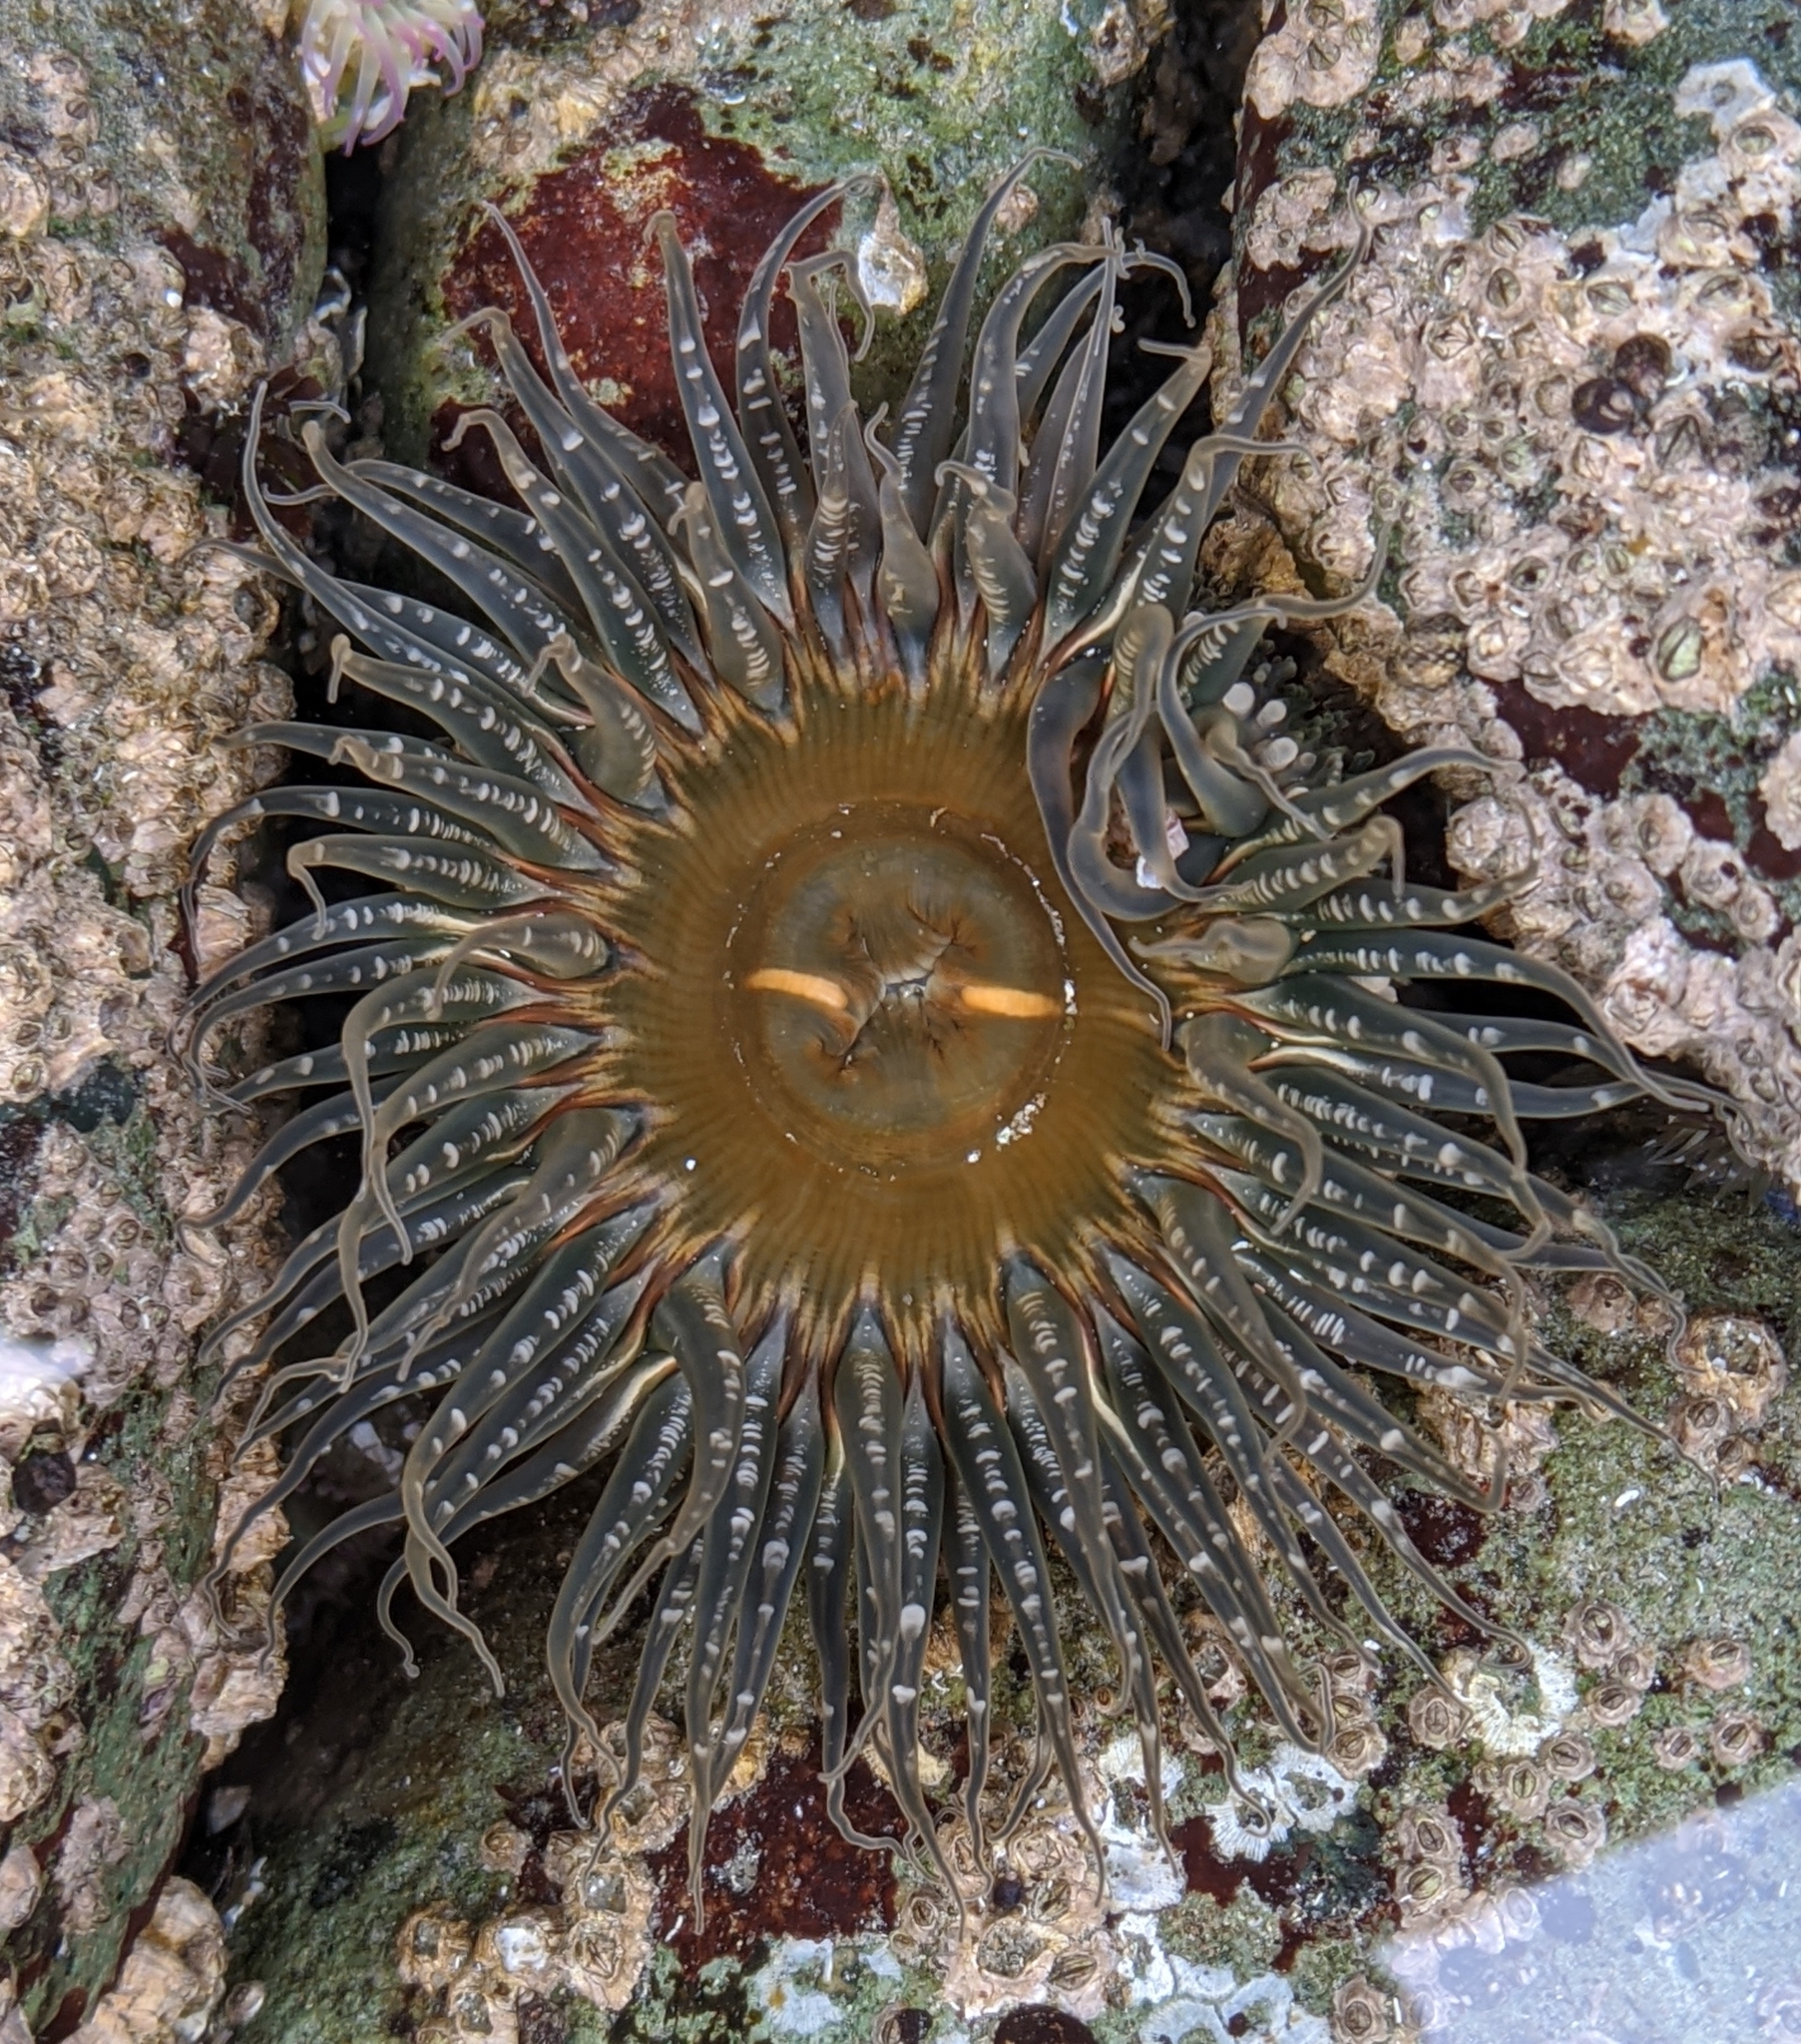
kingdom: Animalia
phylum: Cnidaria
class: Anthozoa
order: Actiniaria
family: Actiniidae
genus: Anthopleura
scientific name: Anthopleura artemisia
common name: Buried sea anemone
